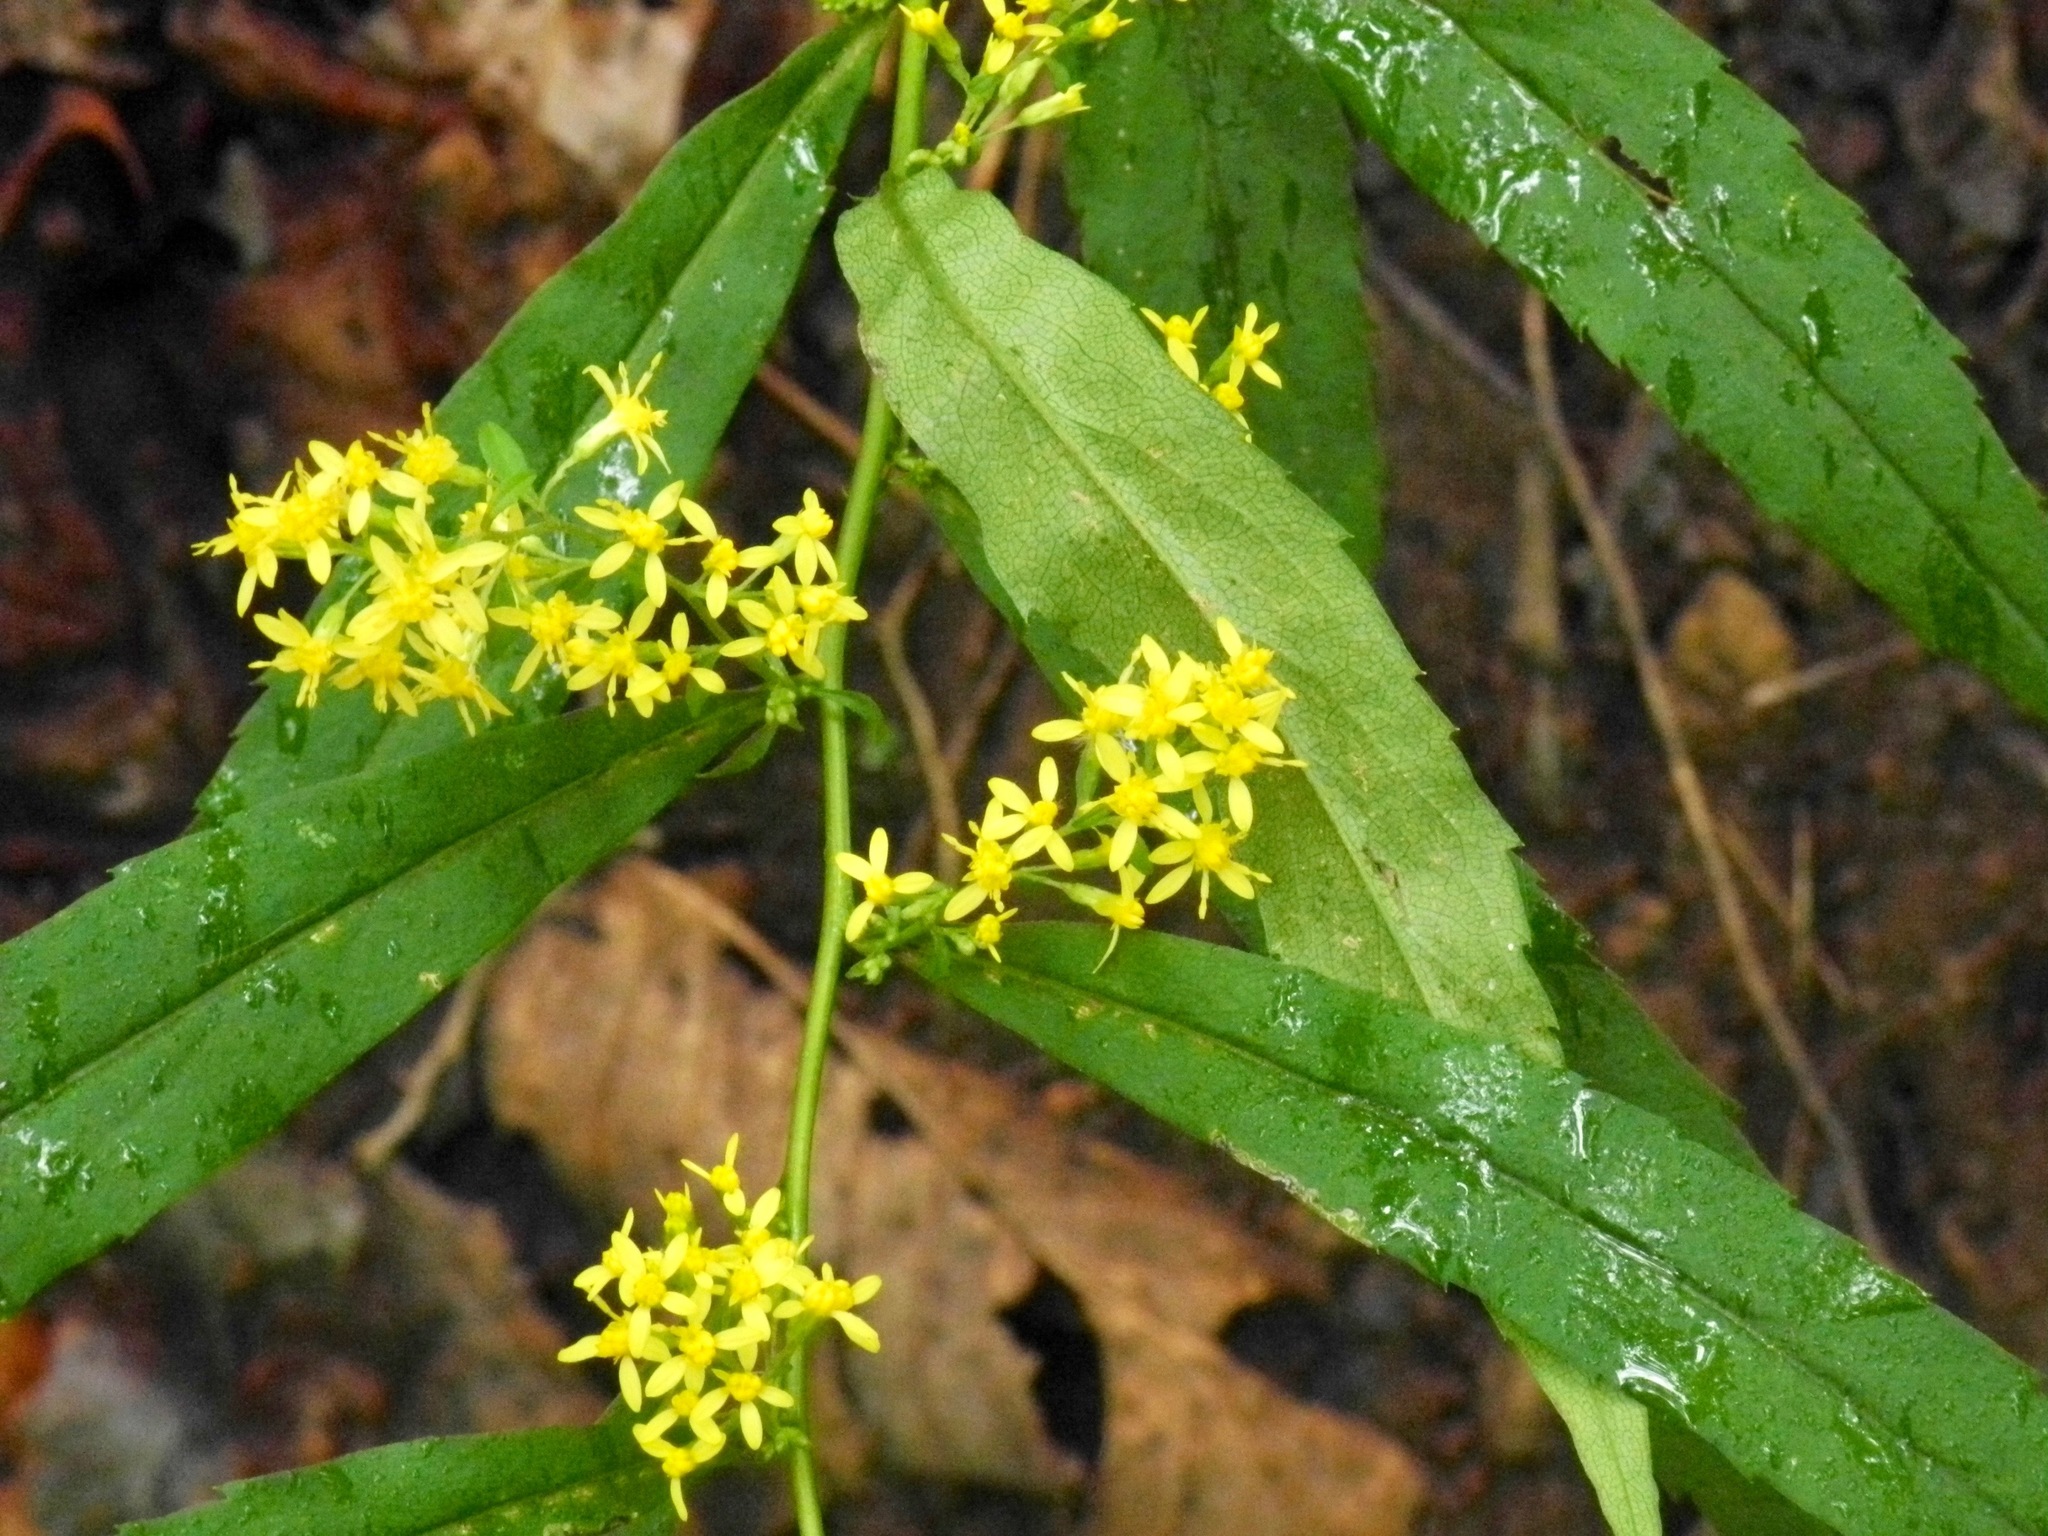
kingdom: Plantae
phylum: Tracheophyta
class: Magnoliopsida
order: Asterales
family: Asteraceae
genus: Solidago
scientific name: Solidago caesia
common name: Woodland goldenrod
